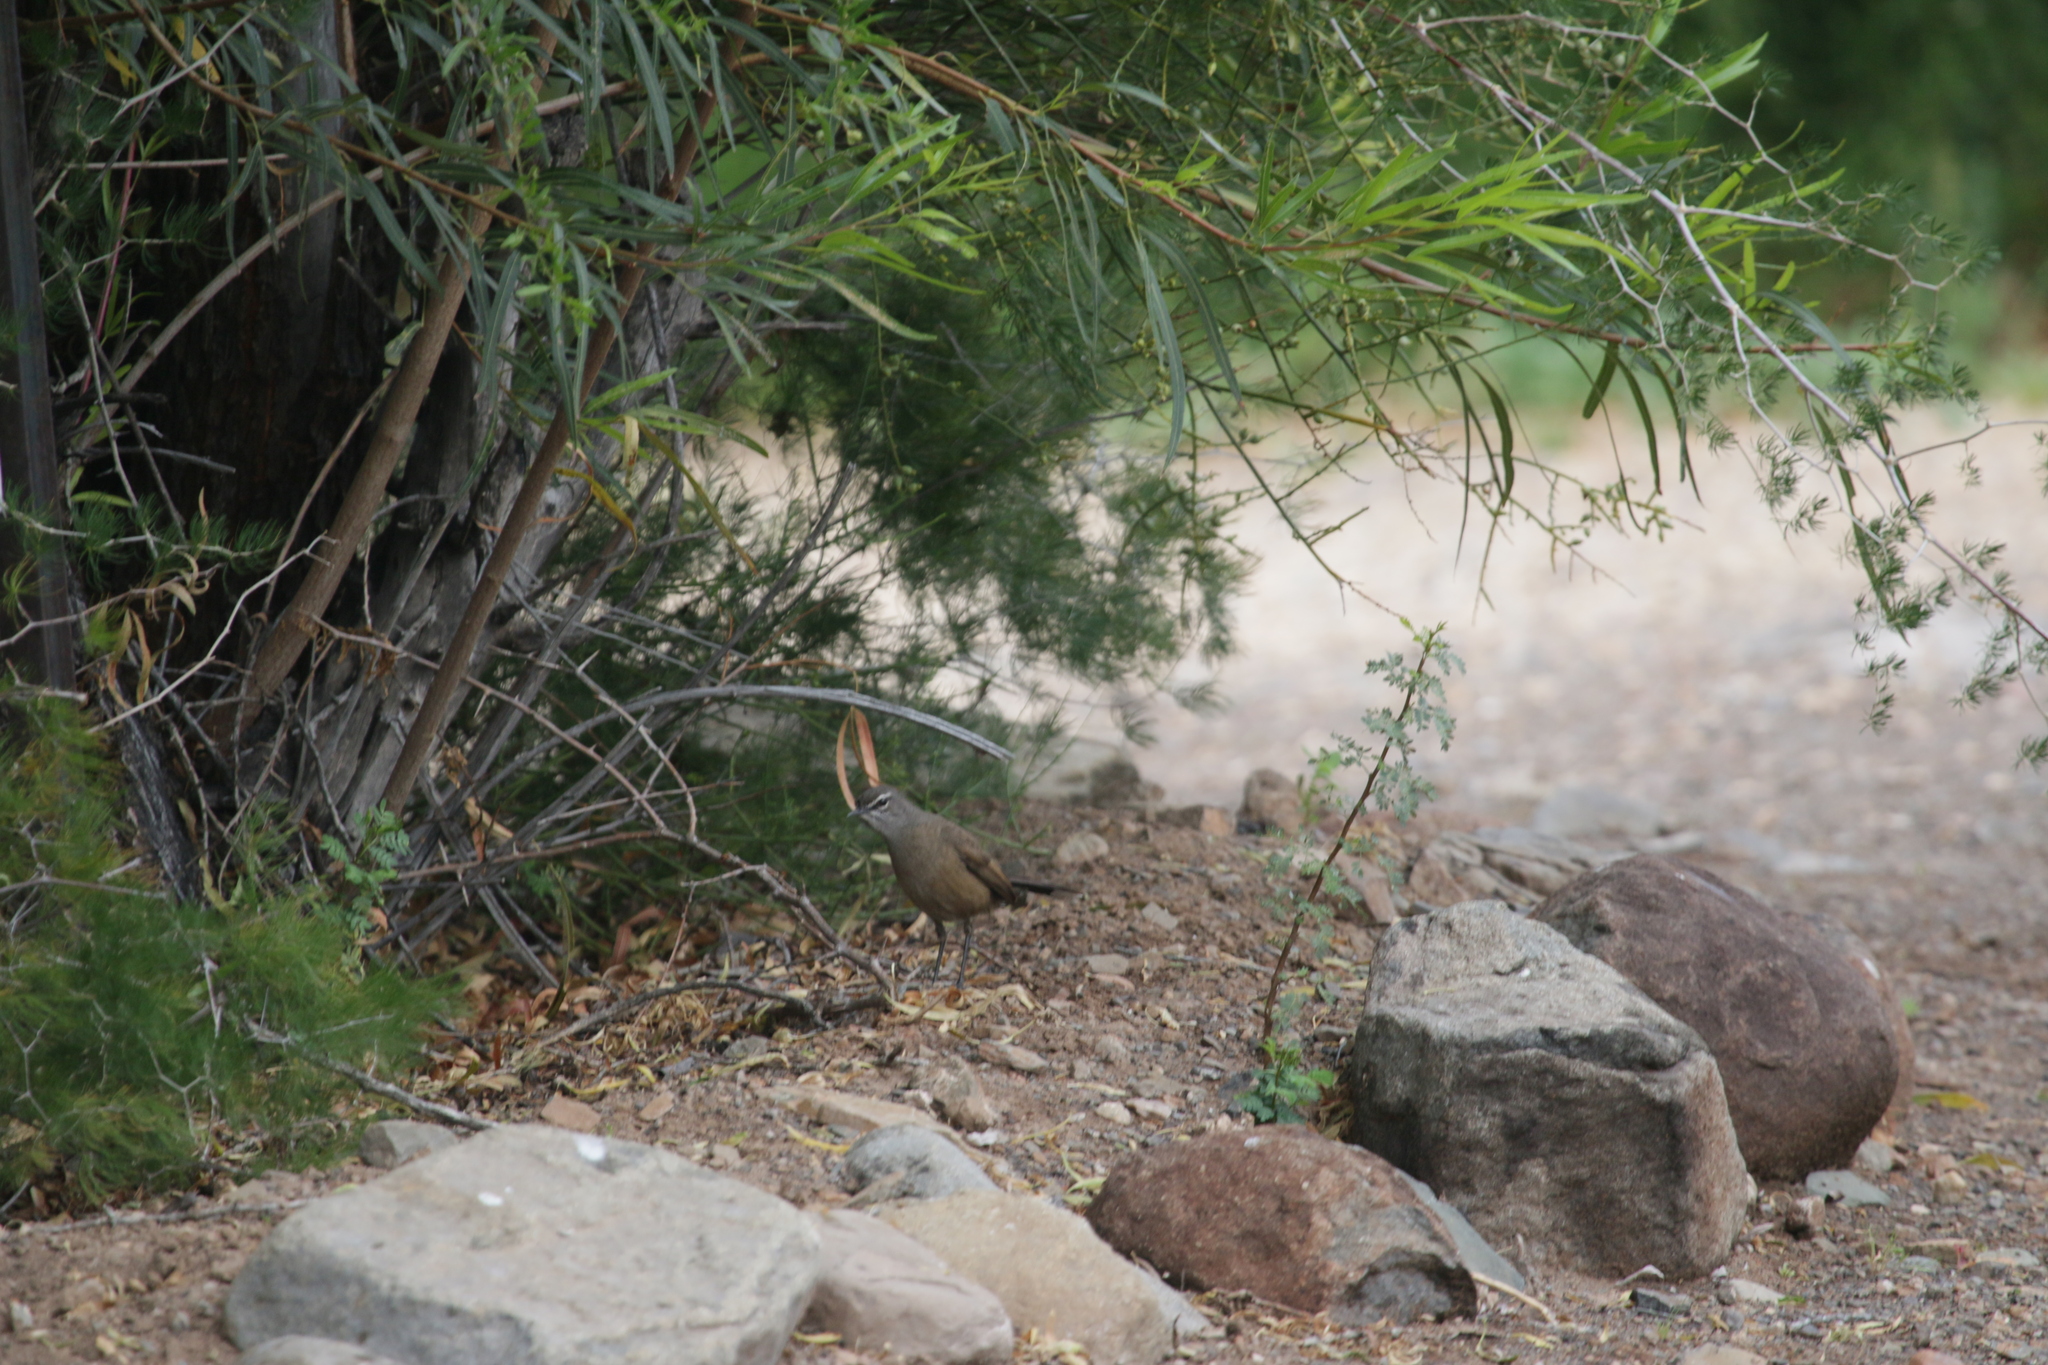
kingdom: Animalia
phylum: Chordata
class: Aves
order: Passeriformes
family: Muscicapidae
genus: Erythropygia
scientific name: Erythropygia coryphoeus
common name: Karoo scrub robin
